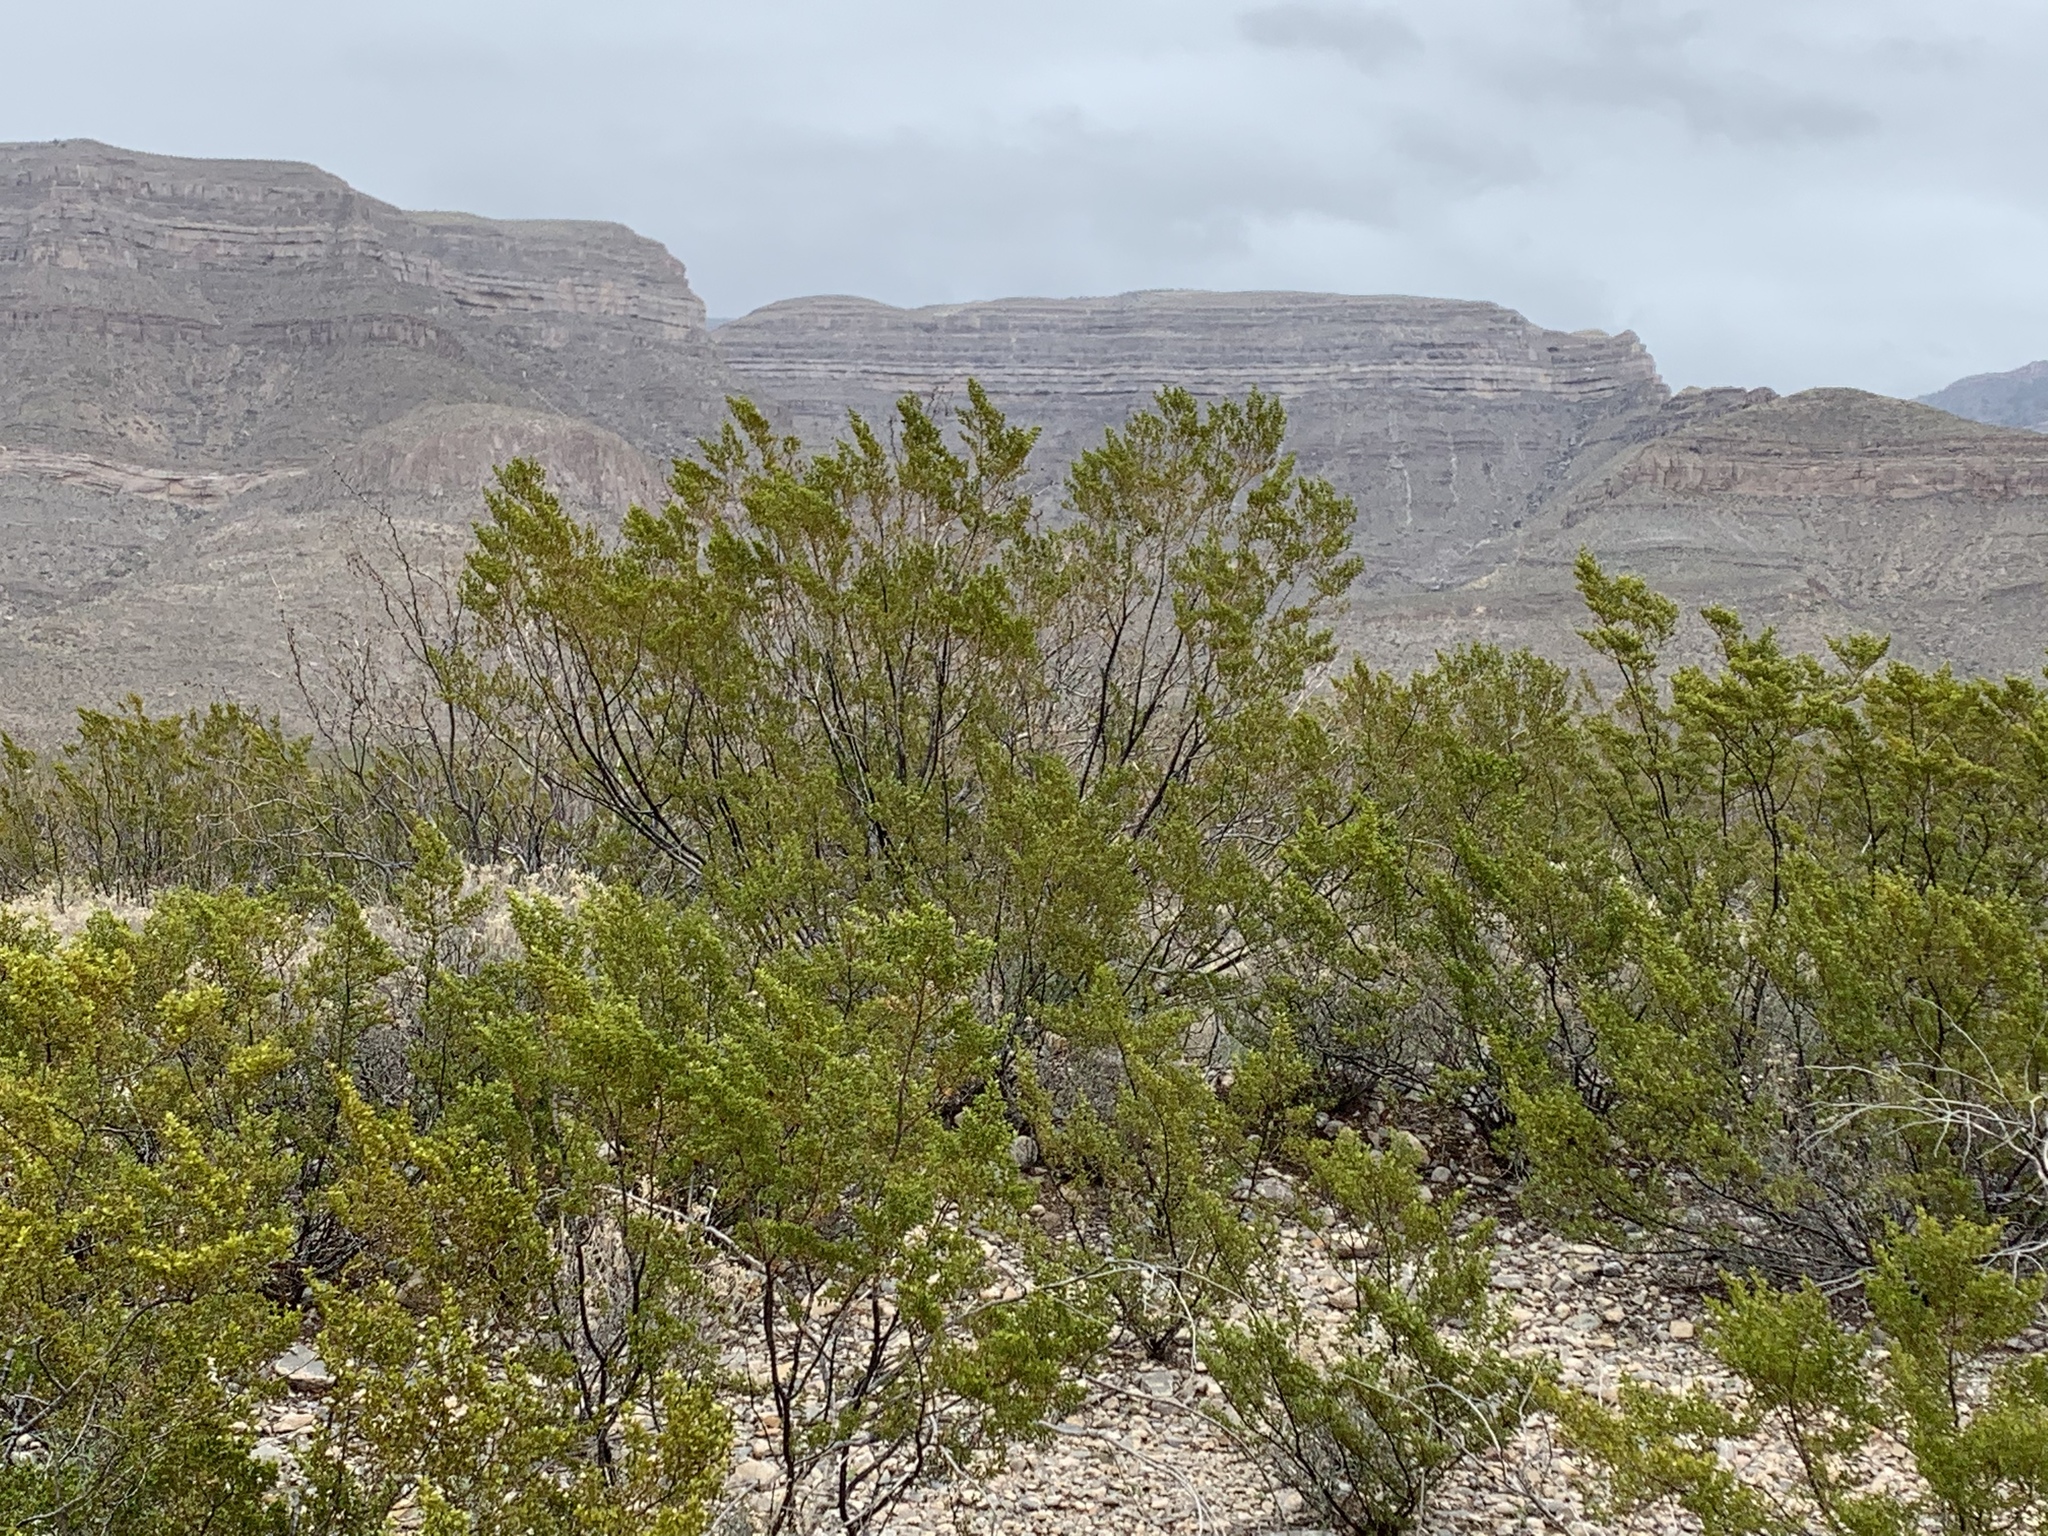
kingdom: Plantae
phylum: Tracheophyta
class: Magnoliopsida
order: Zygophyllales
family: Zygophyllaceae
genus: Larrea
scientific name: Larrea tridentata
